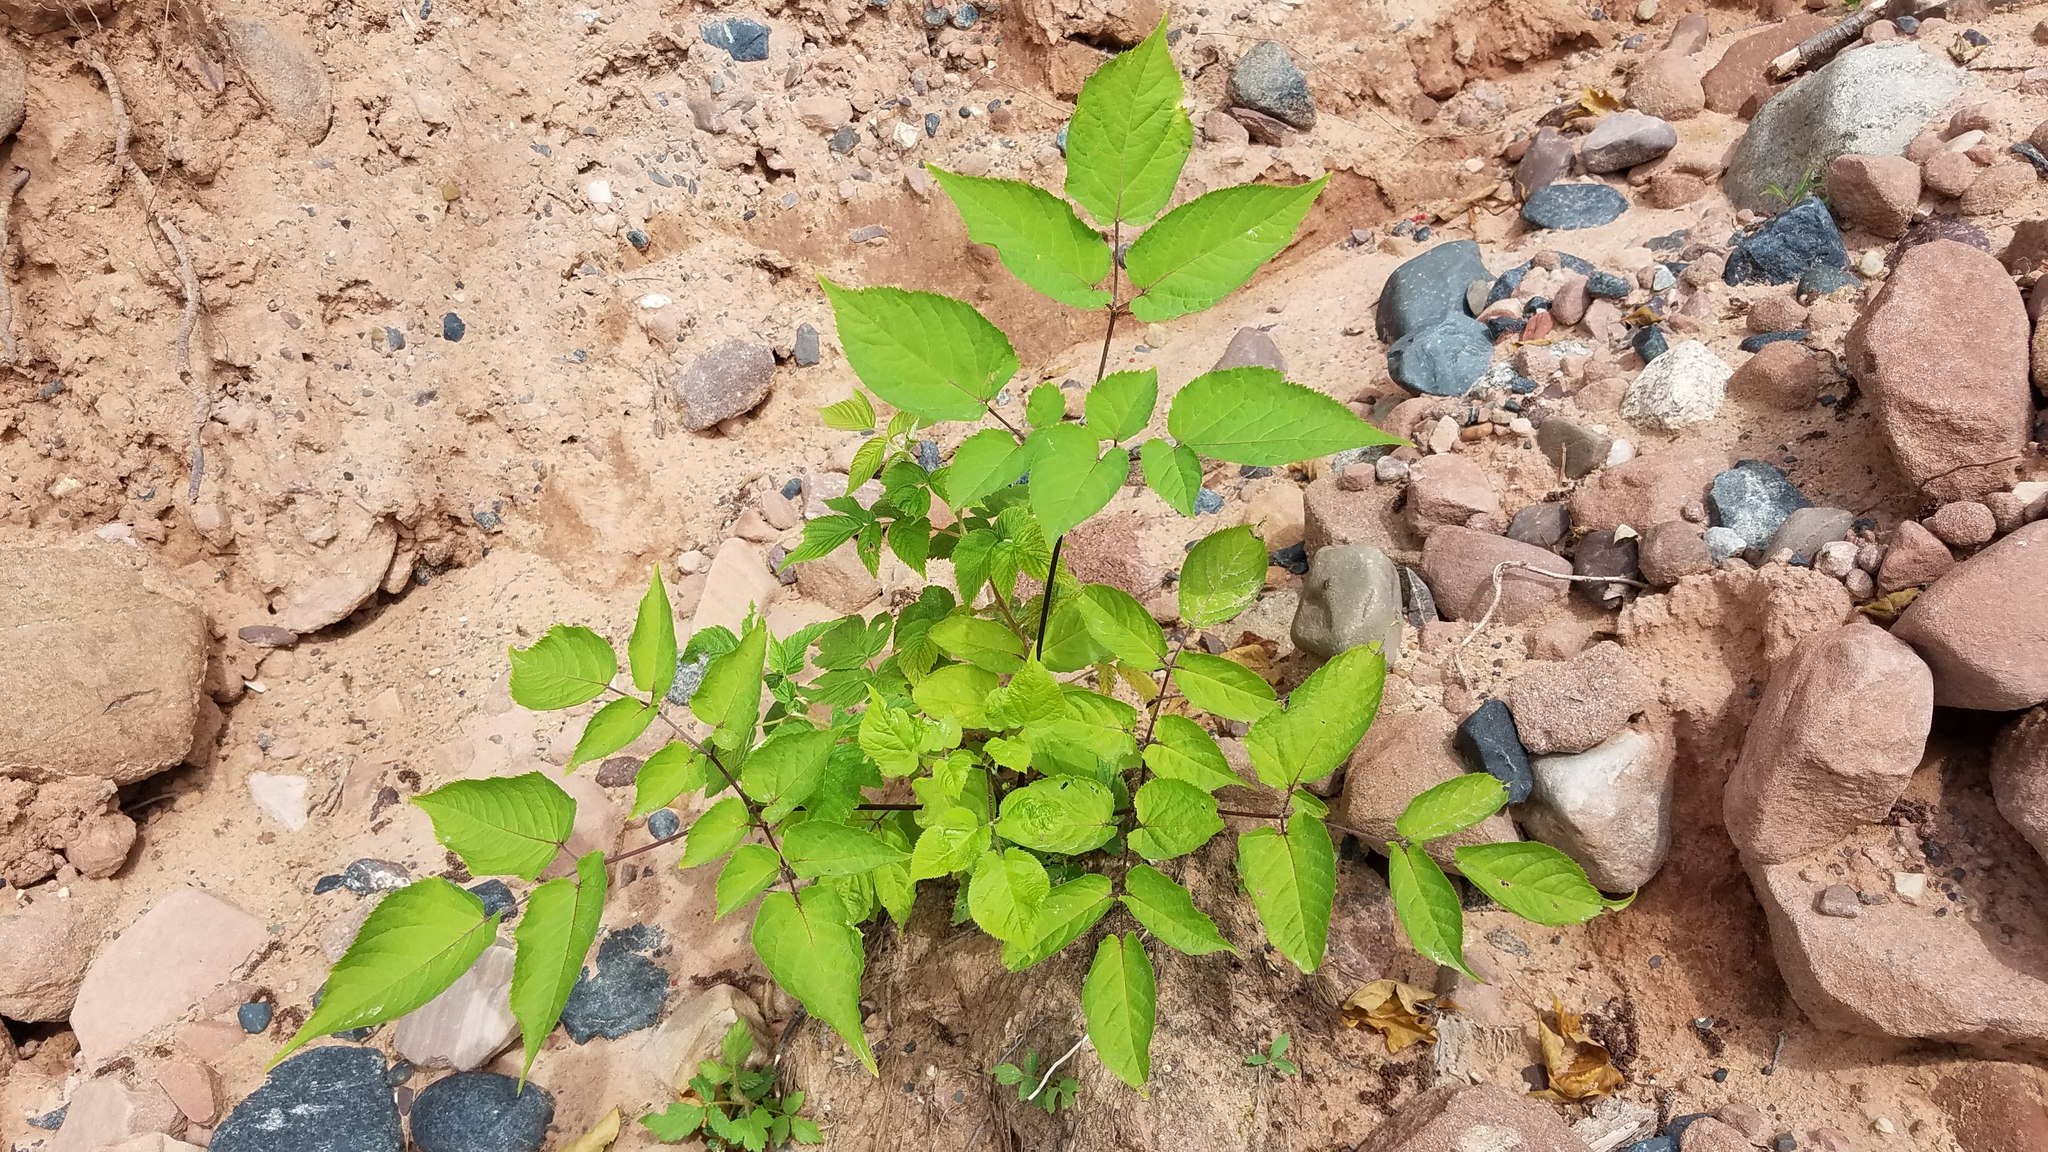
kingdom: Plantae
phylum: Tracheophyta
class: Magnoliopsida
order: Apiales
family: Araliaceae
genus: Aralia
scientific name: Aralia racemosa
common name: American-spikenard
